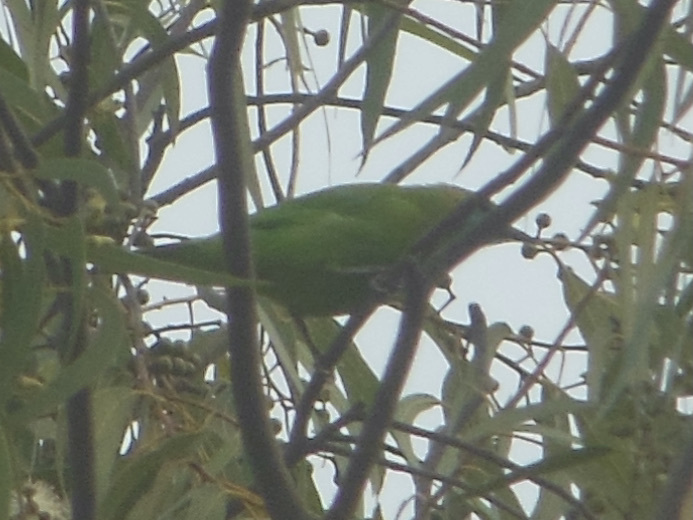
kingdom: Animalia
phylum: Chordata
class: Aves
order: Passeriformes
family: Chloropseidae
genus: Chloropsis
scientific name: Chloropsis jerdoni
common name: Jerdon's leafbird
